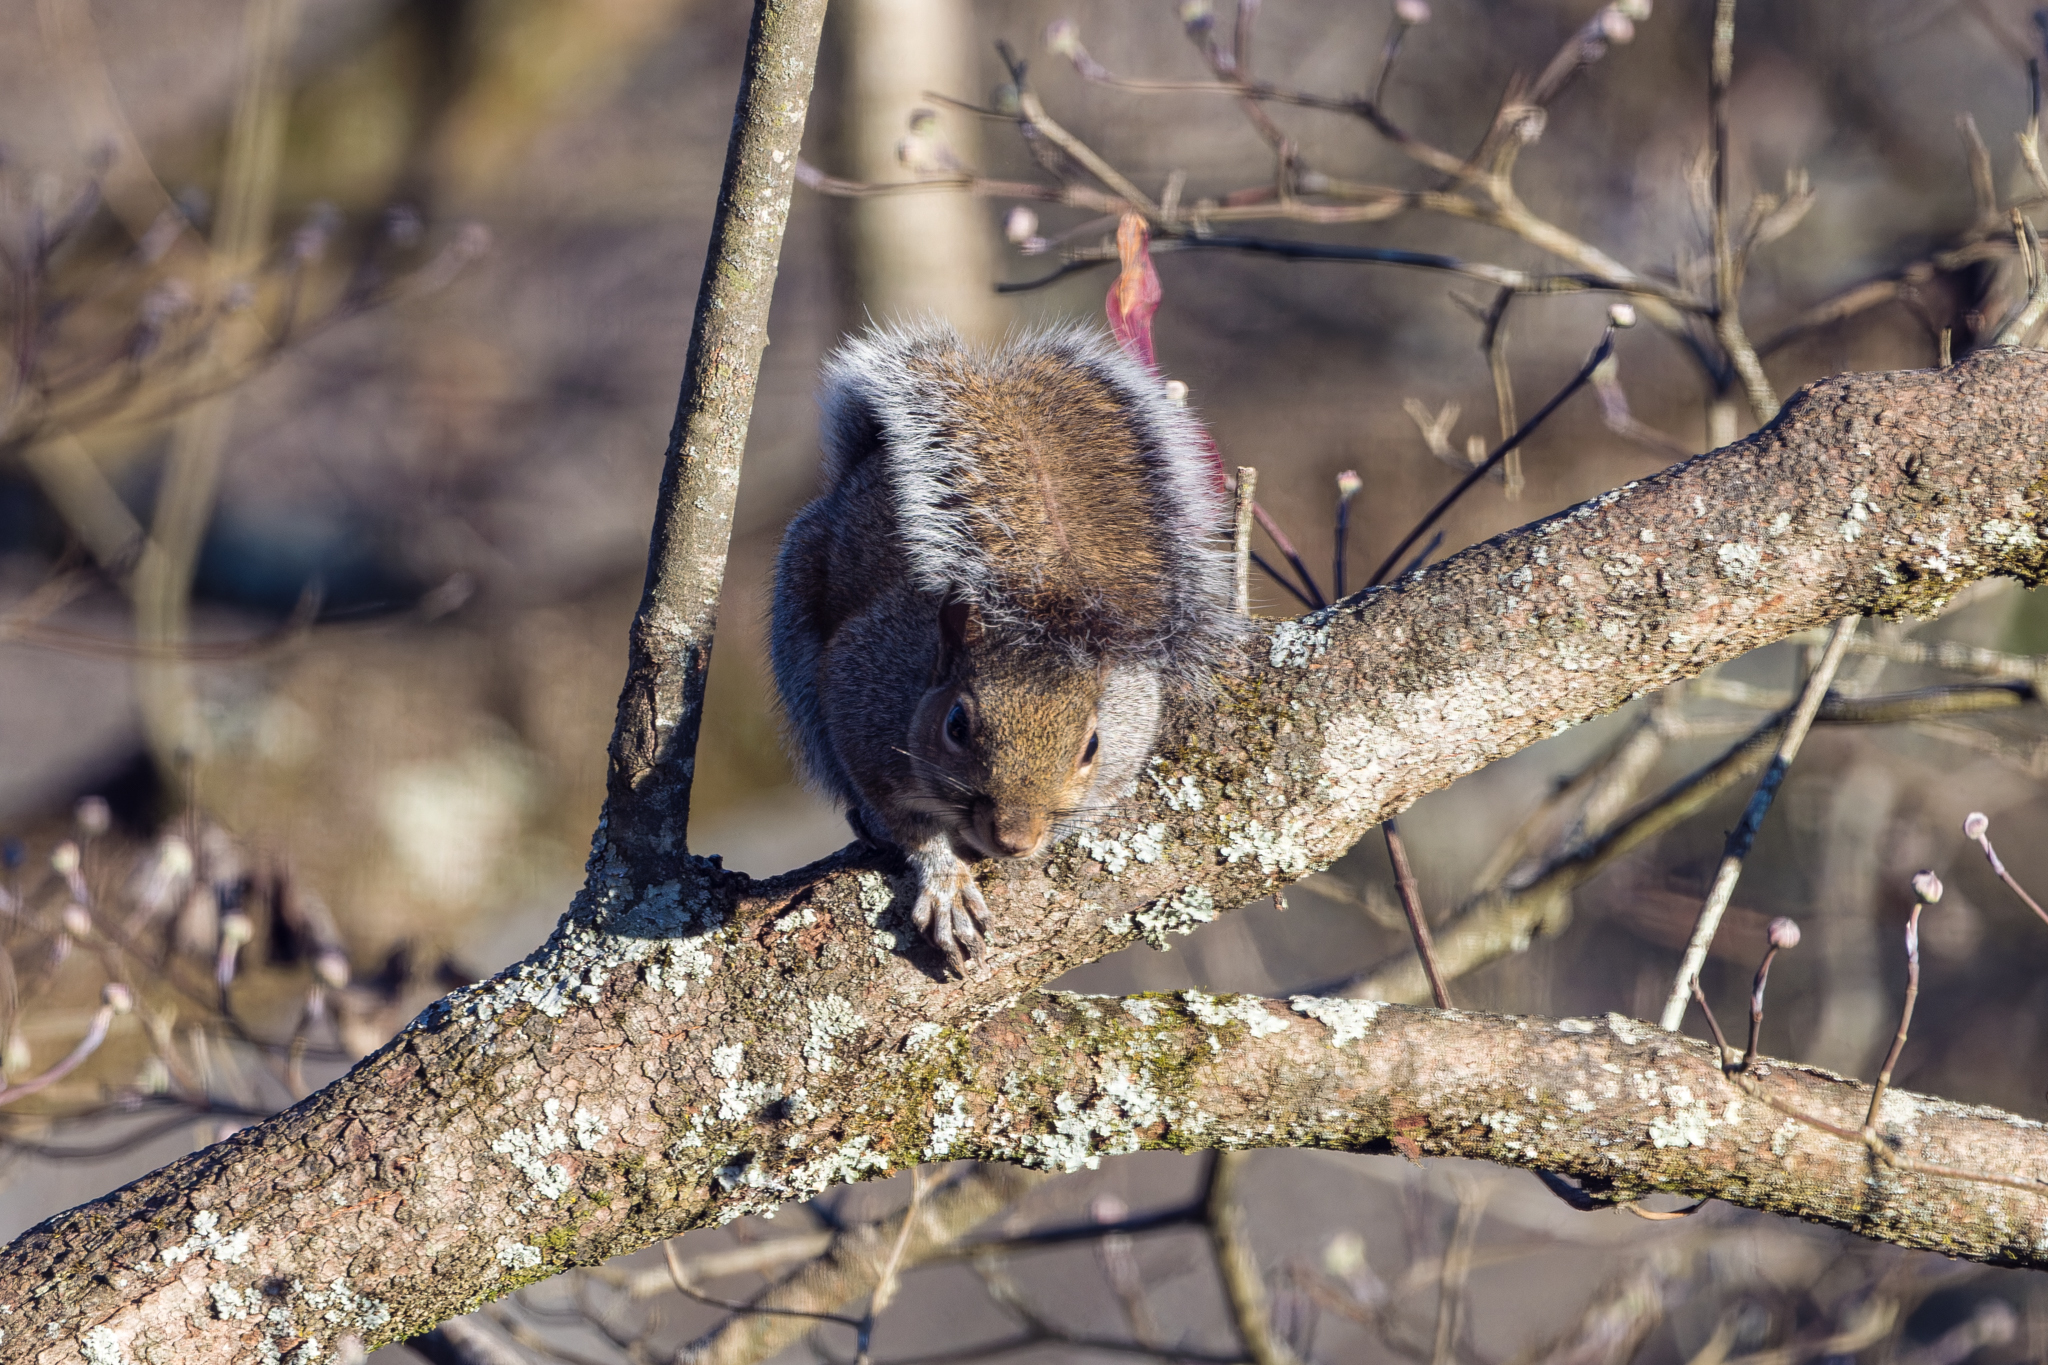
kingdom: Animalia
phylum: Chordata
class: Mammalia
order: Rodentia
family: Sciuridae
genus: Sciurus
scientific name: Sciurus carolinensis
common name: Eastern gray squirrel
